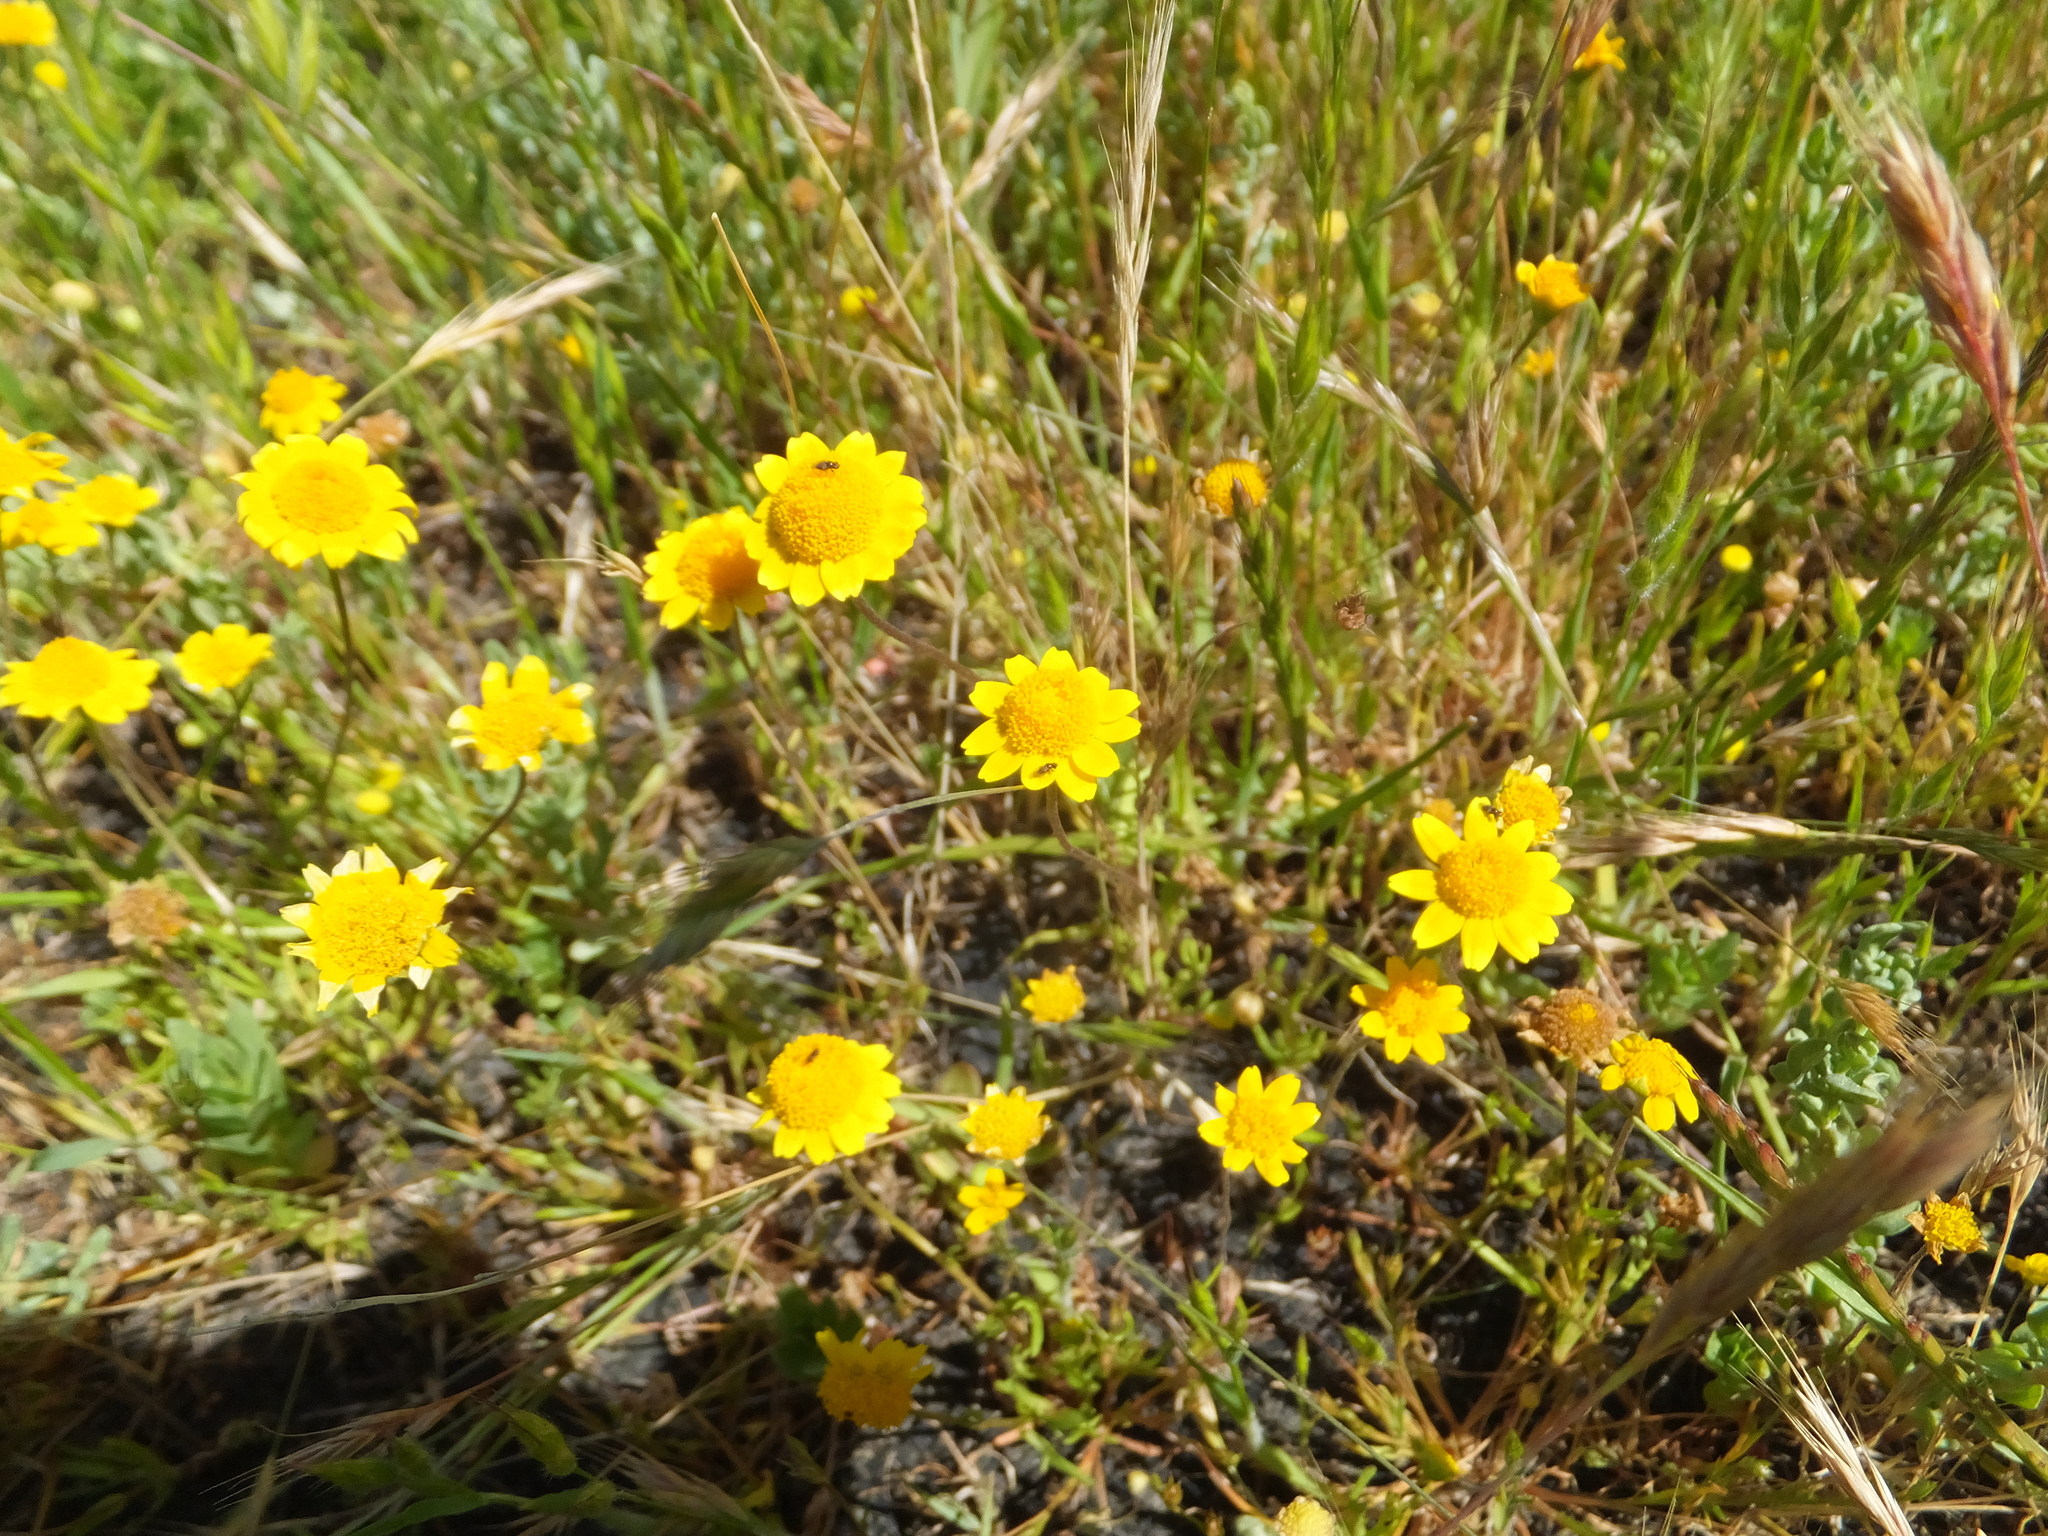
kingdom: Plantae
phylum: Tracheophyta
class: Magnoliopsida
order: Asterales
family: Asteraceae
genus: Lasthenia
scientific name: Lasthenia conjugens
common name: Contra costa goldfields
